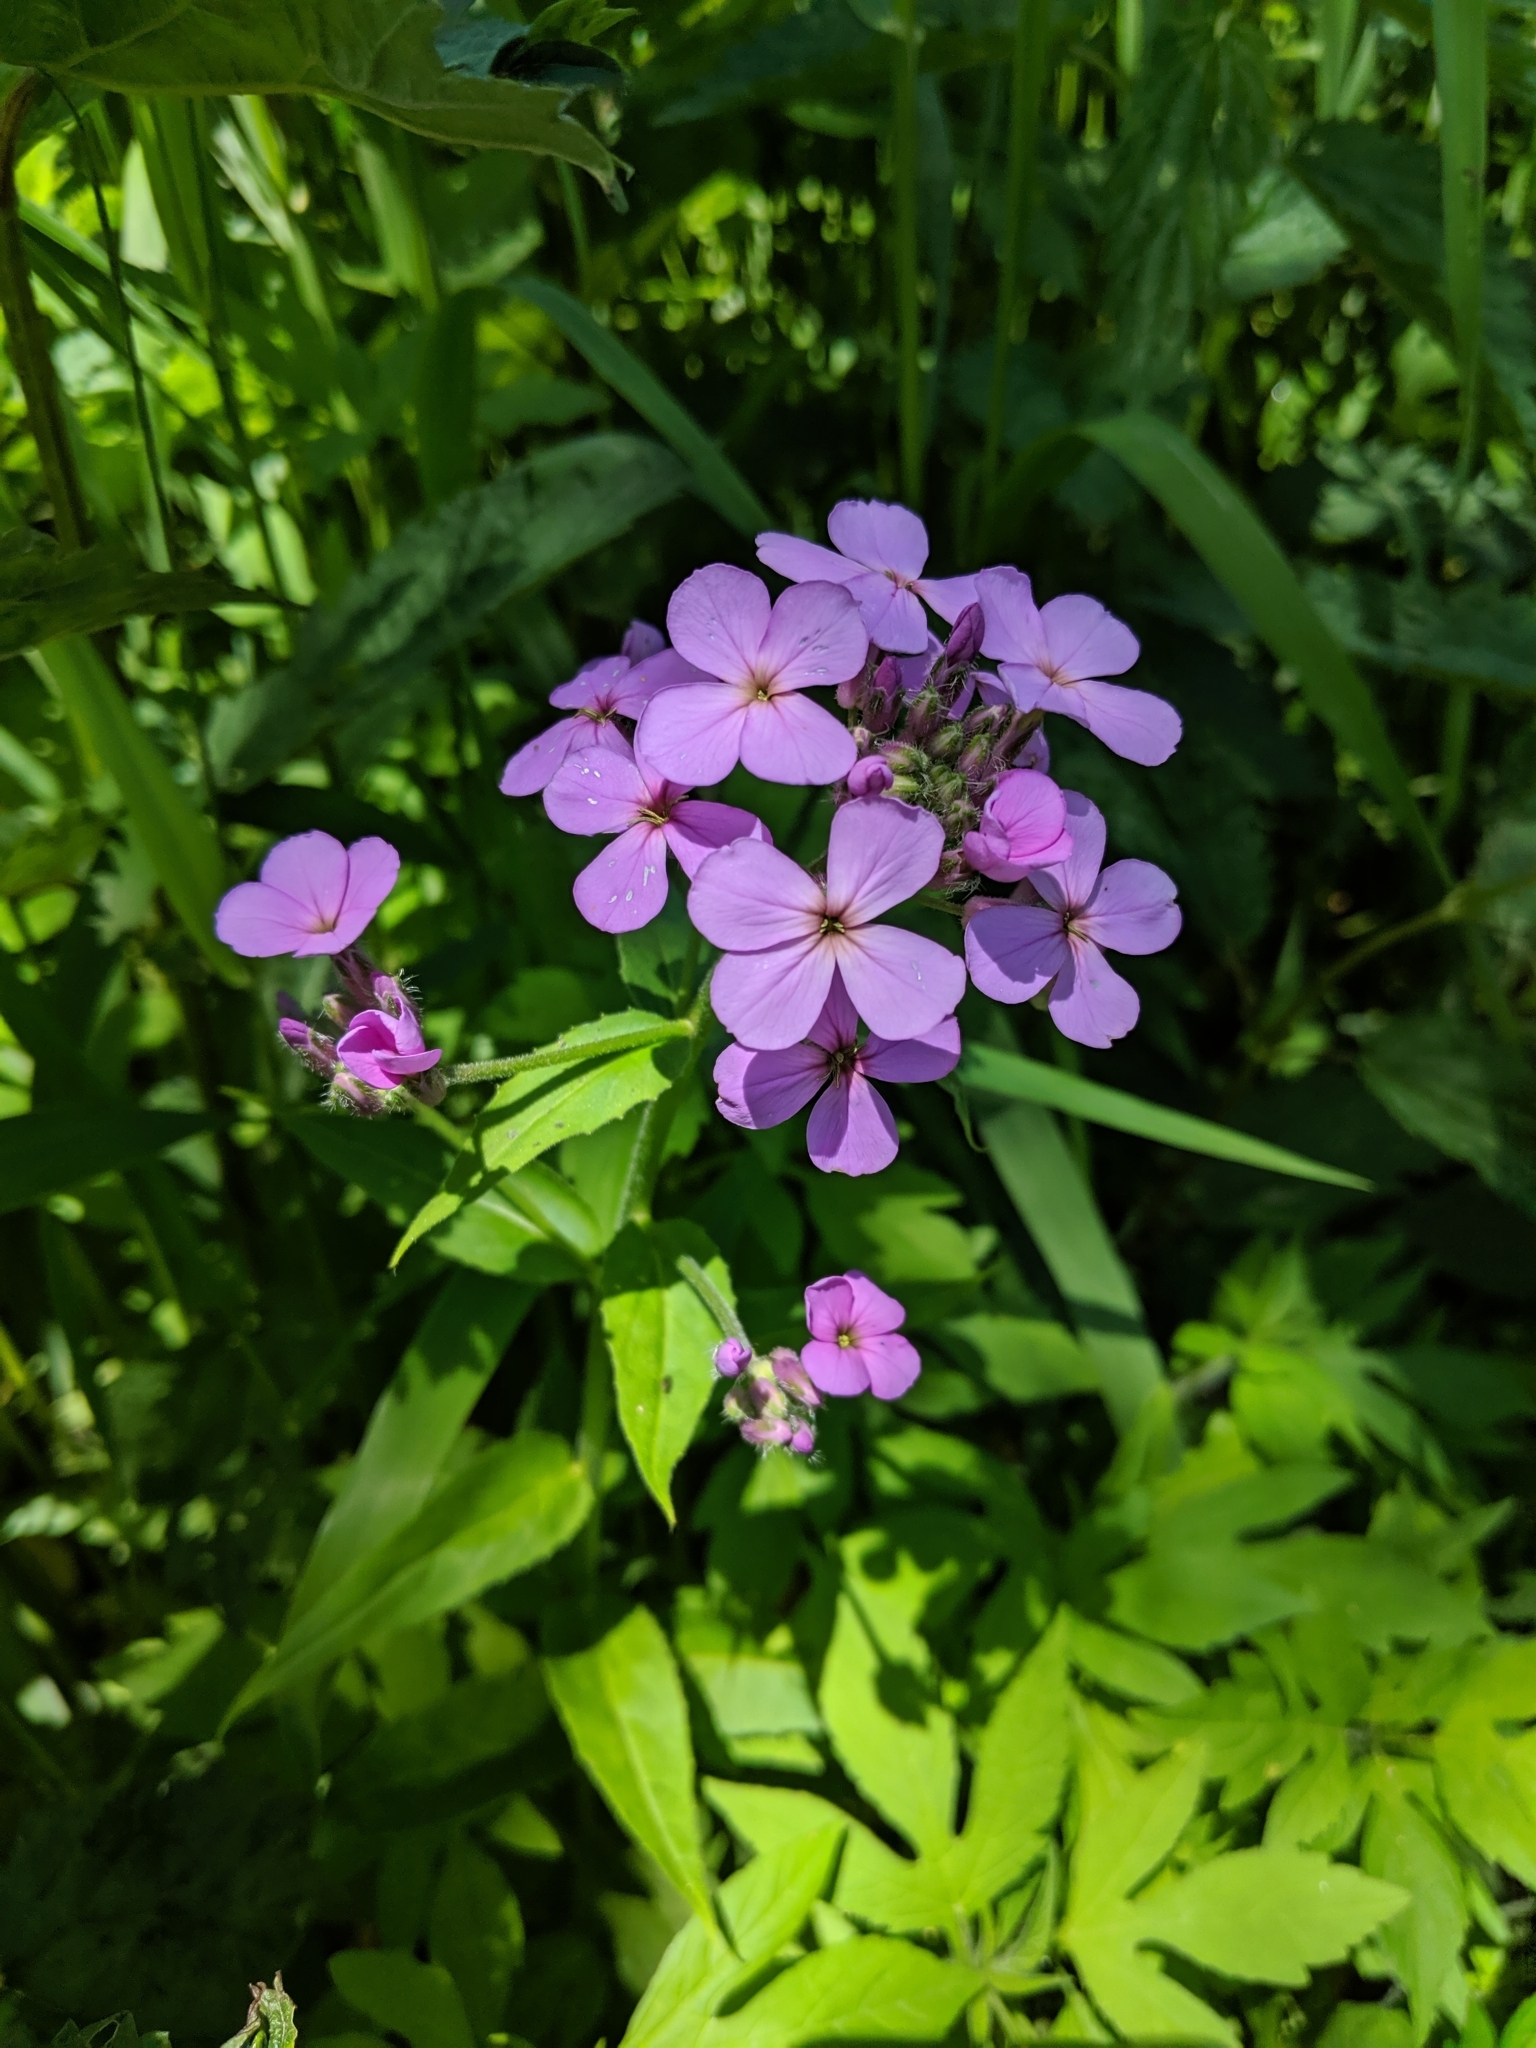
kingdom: Plantae
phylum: Tracheophyta
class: Magnoliopsida
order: Brassicales
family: Brassicaceae
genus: Hesperis
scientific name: Hesperis matronalis
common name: Dame's-violet
